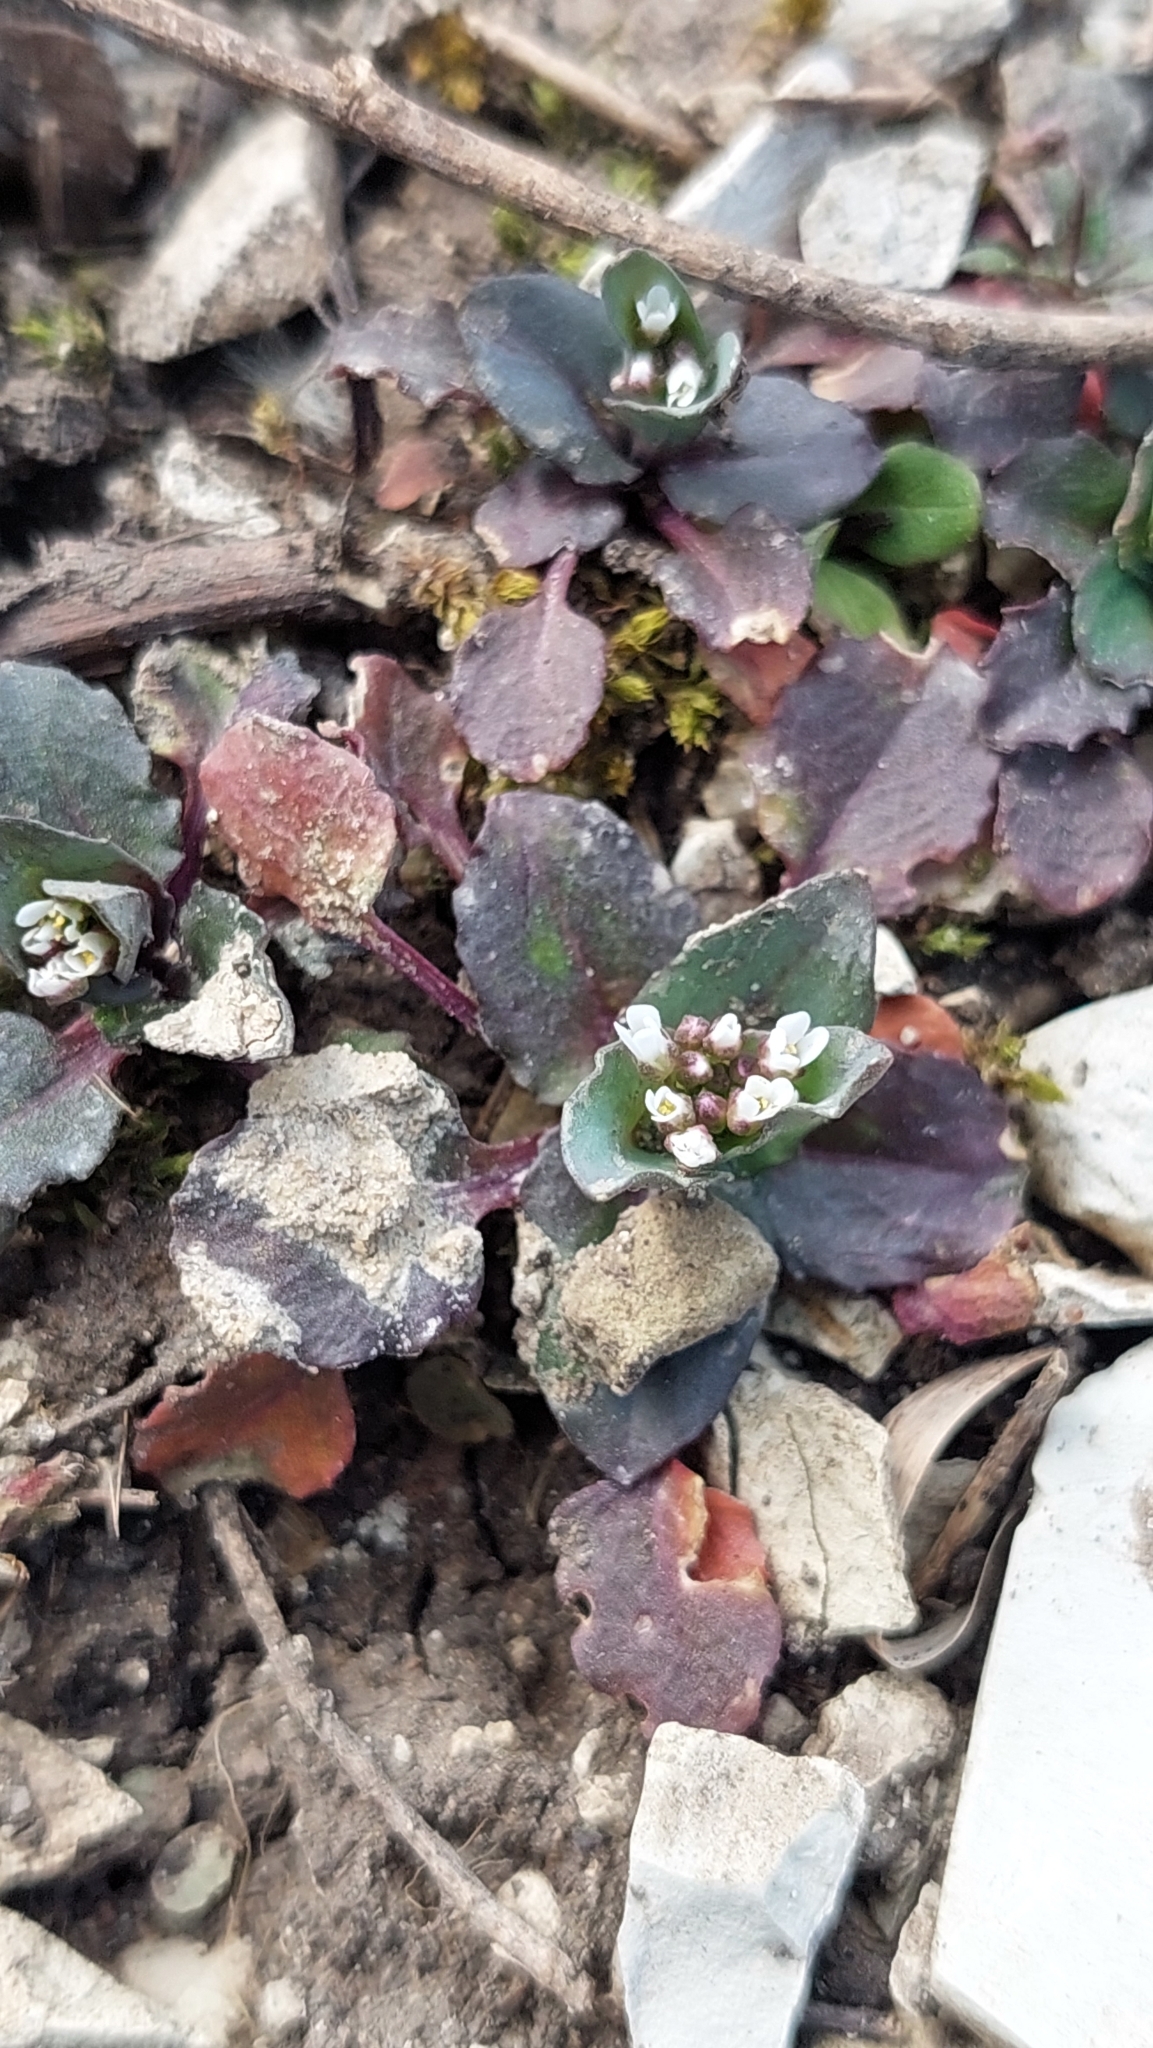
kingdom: Plantae
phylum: Tracheophyta
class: Magnoliopsida
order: Brassicales
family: Brassicaceae
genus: Noccaea
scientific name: Noccaea perfoliata
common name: Perfoliate pennycress
